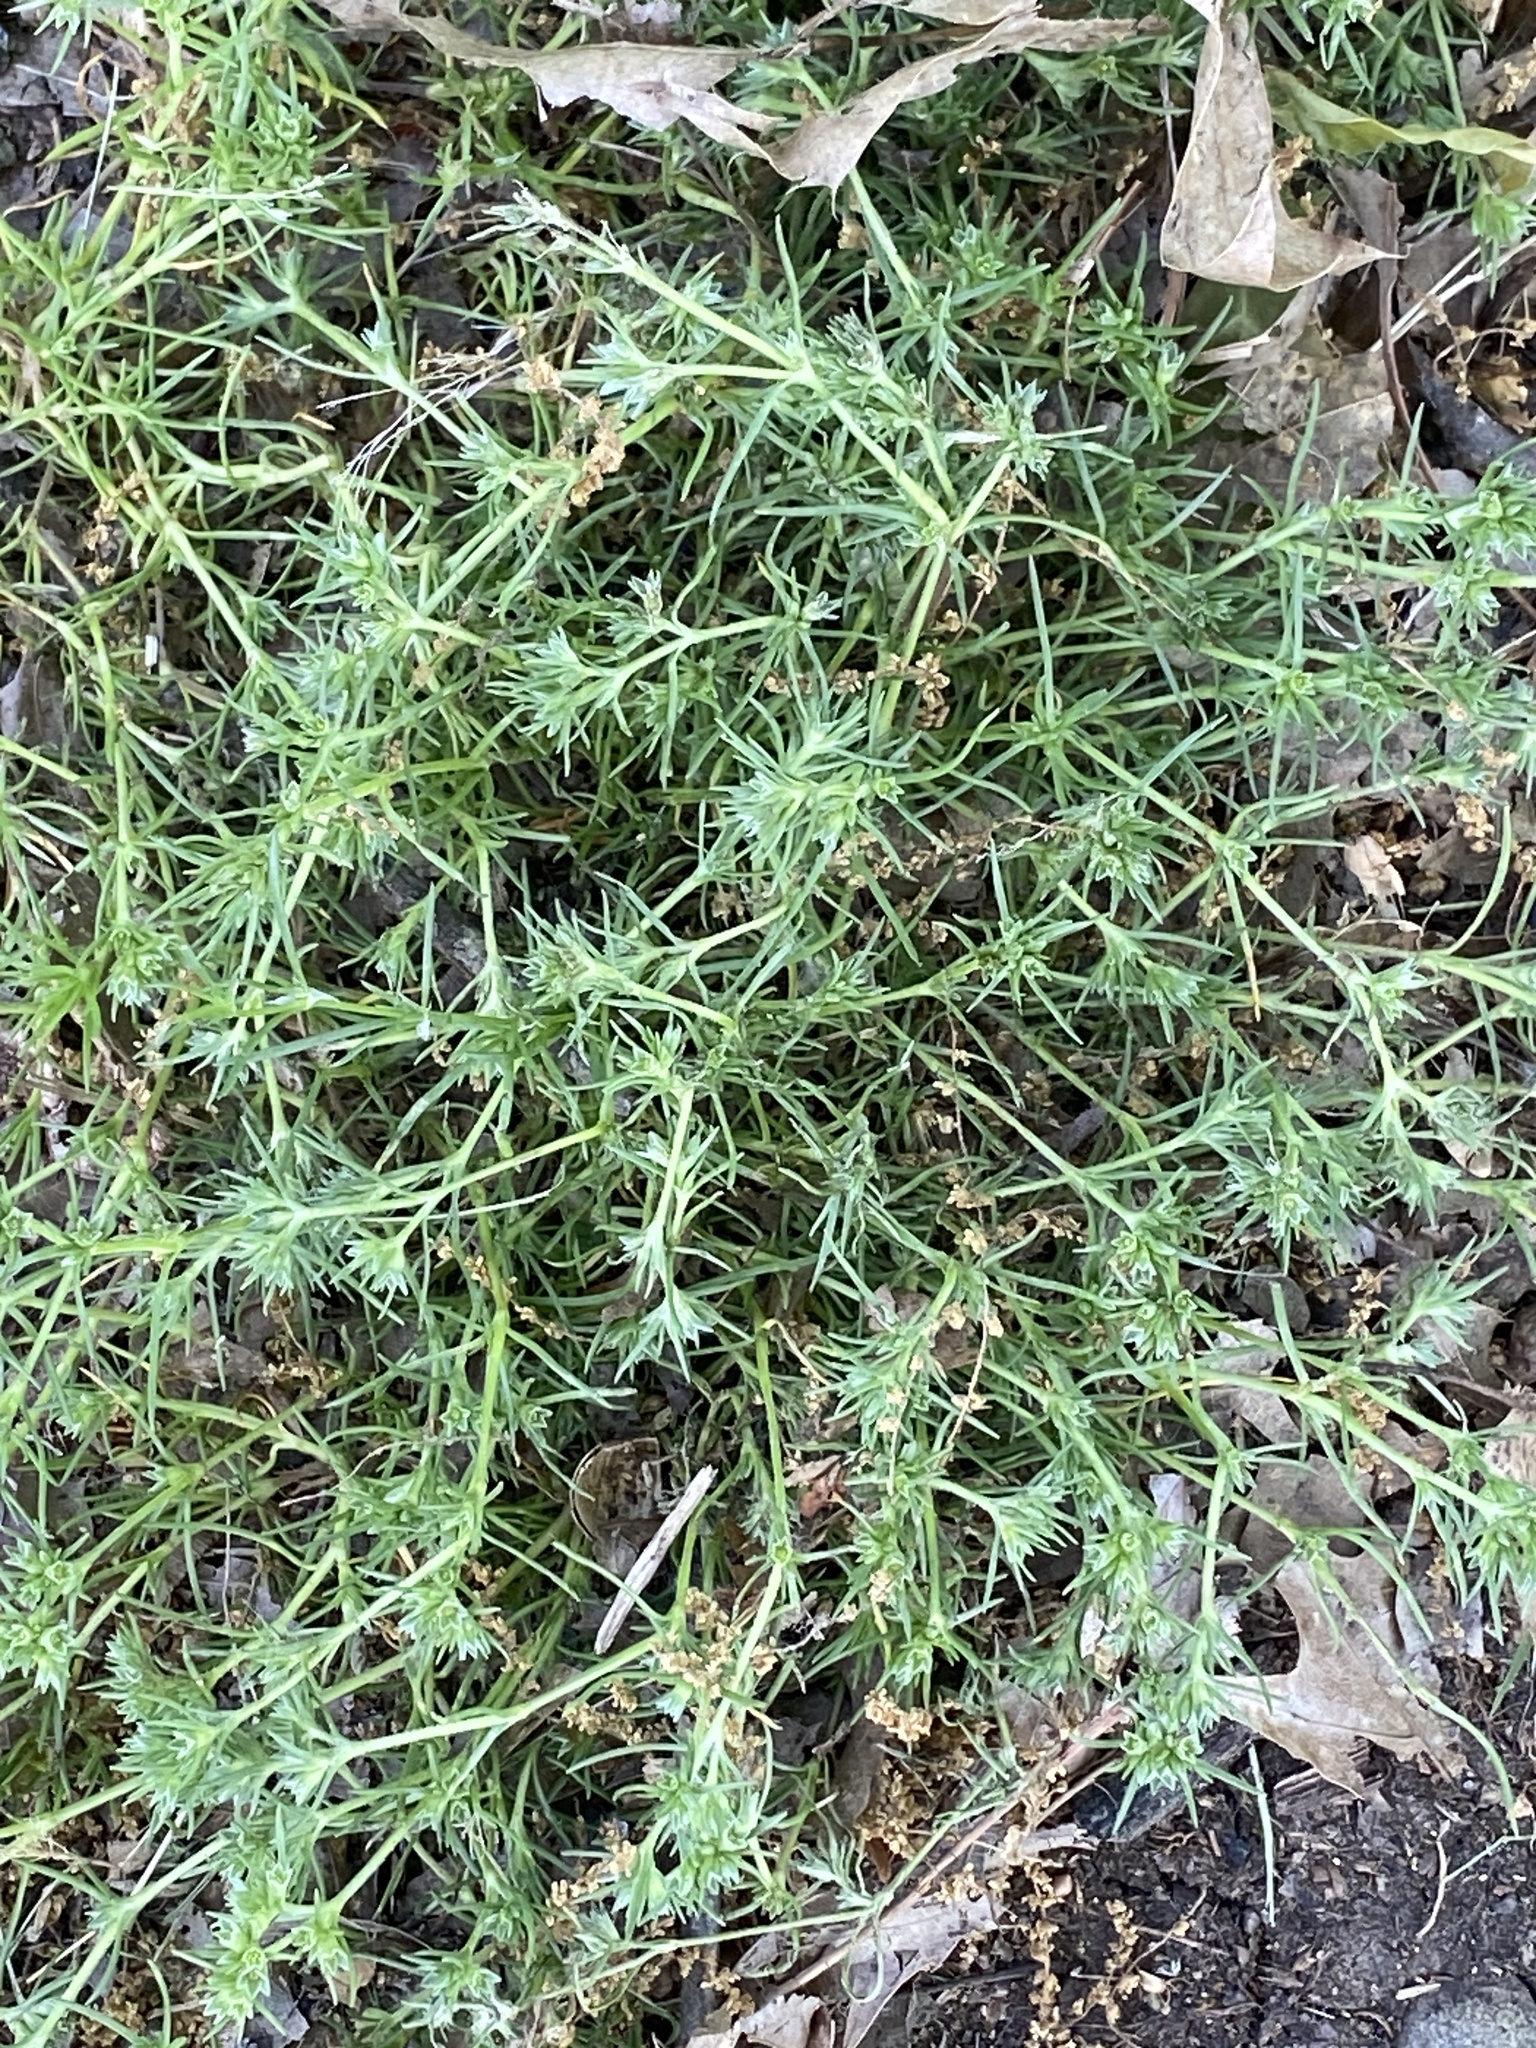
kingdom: Plantae
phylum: Tracheophyta
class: Magnoliopsida
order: Caryophyllales
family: Caryophyllaceae
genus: Scleranthus
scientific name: Scleranthus annuus
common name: Annual knawel
